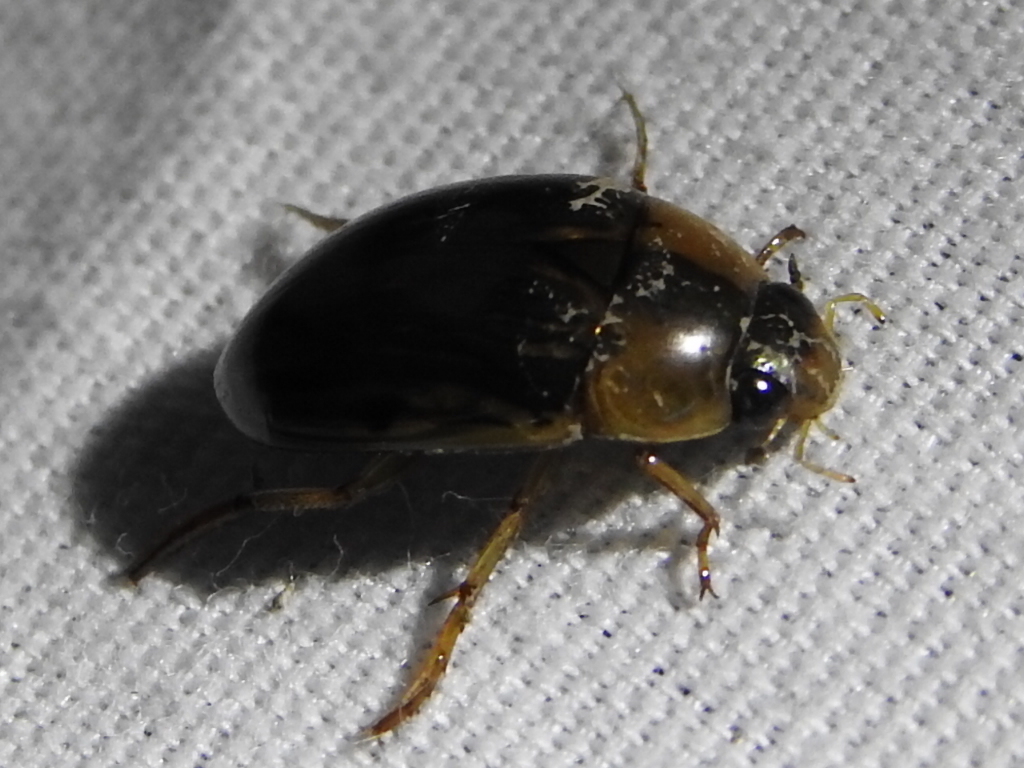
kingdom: Animalia
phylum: Arthropoda
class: Insecta
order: Coleoptera
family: Hydrophilidae
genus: Tropisternus
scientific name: Tropisternus collaris
